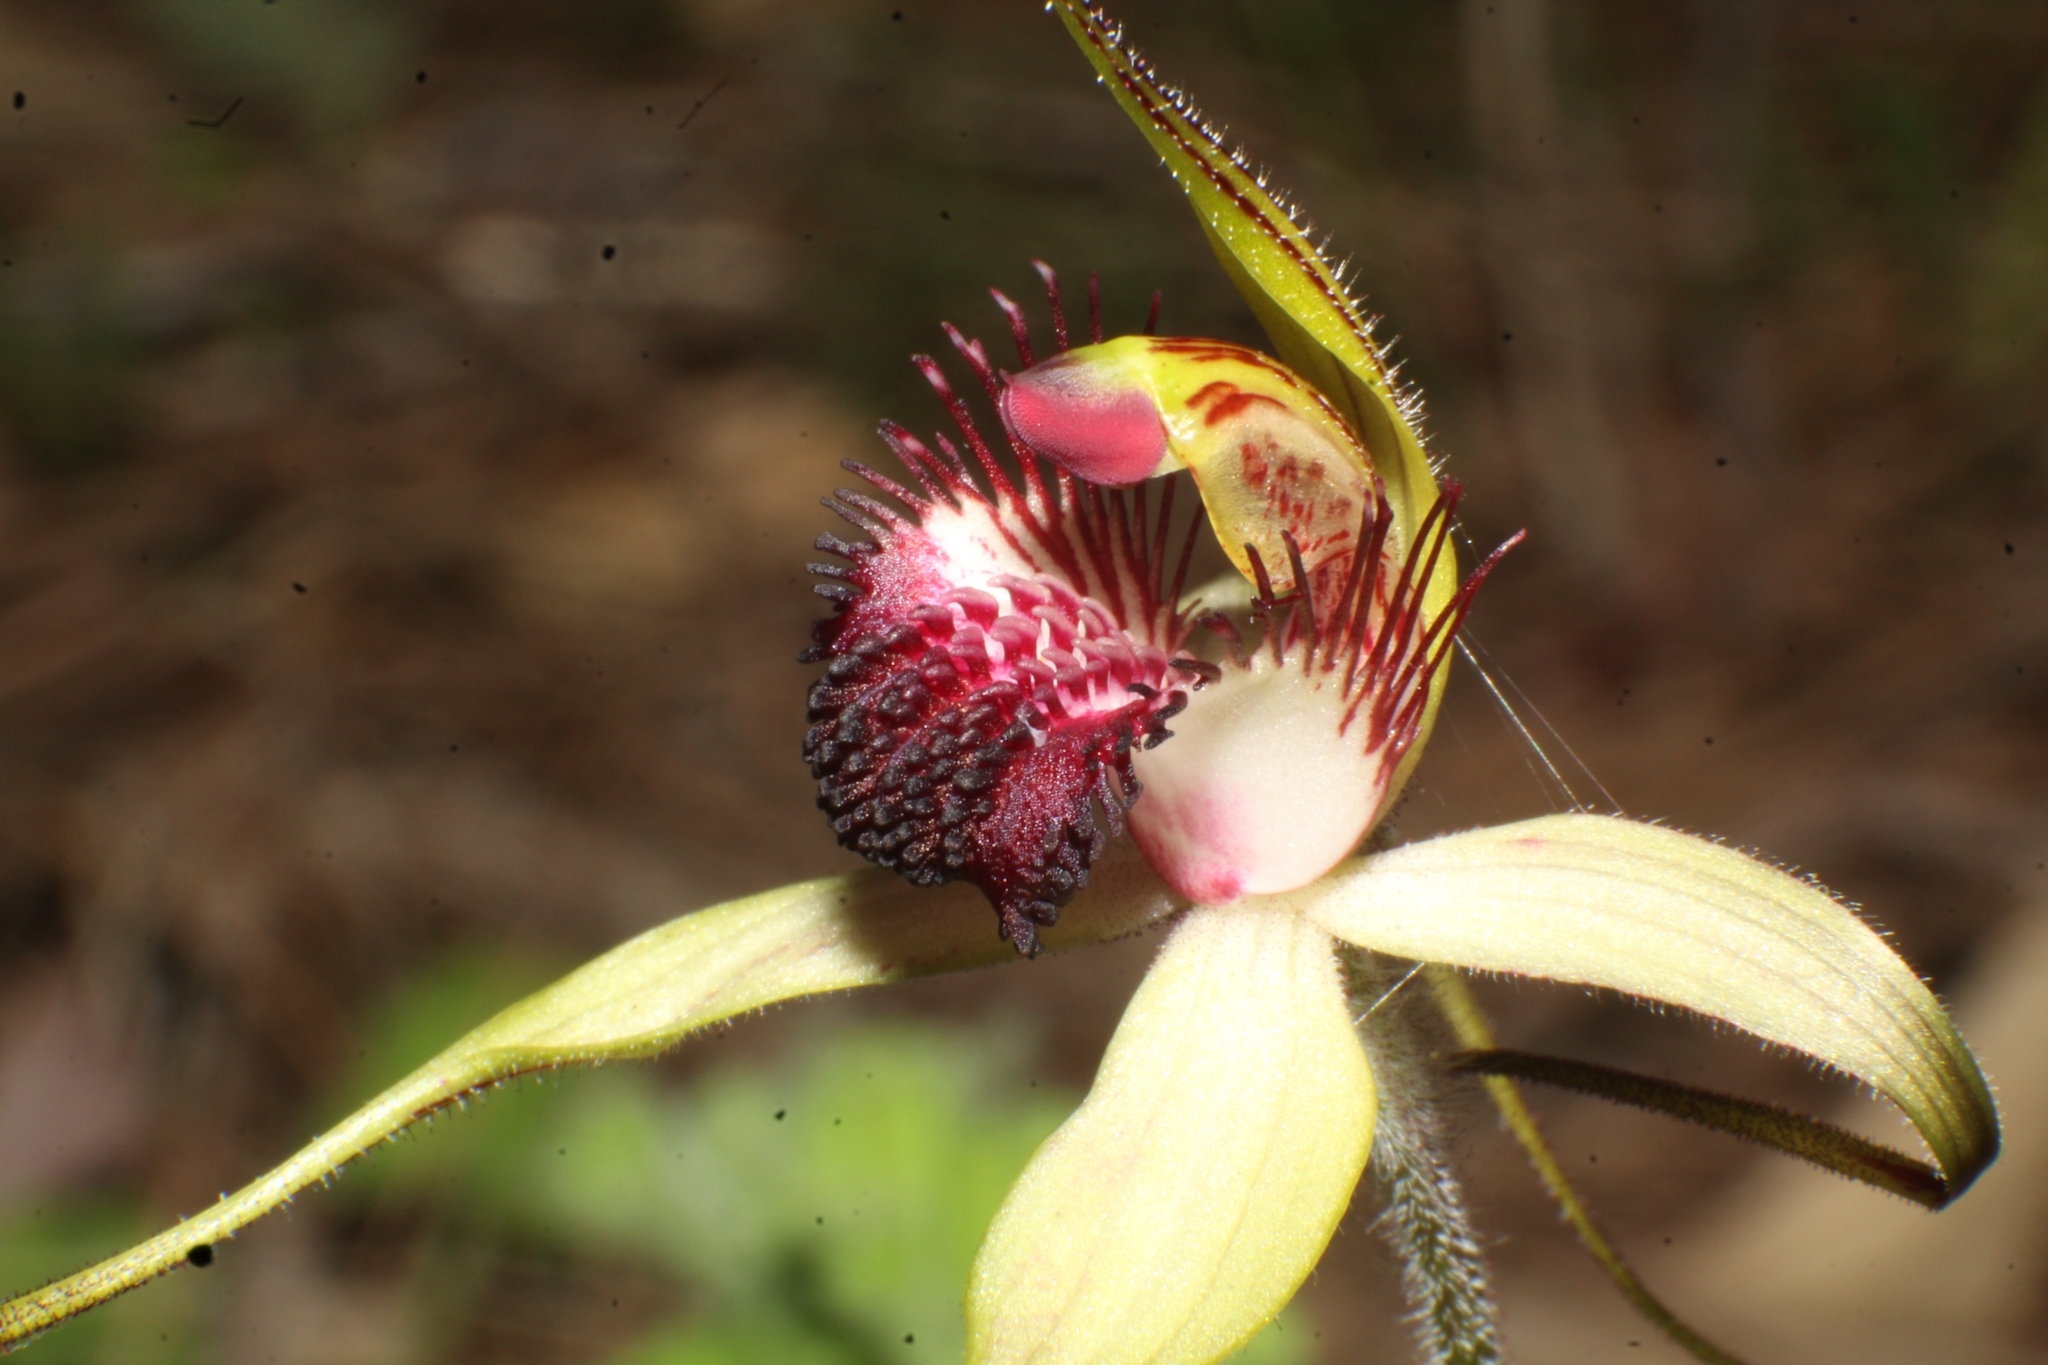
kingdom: Plantae
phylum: Tracheophyta
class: Liliopsida
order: Asparagales
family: Orchidaceae
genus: Caladenia
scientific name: Caladenia arenicola
